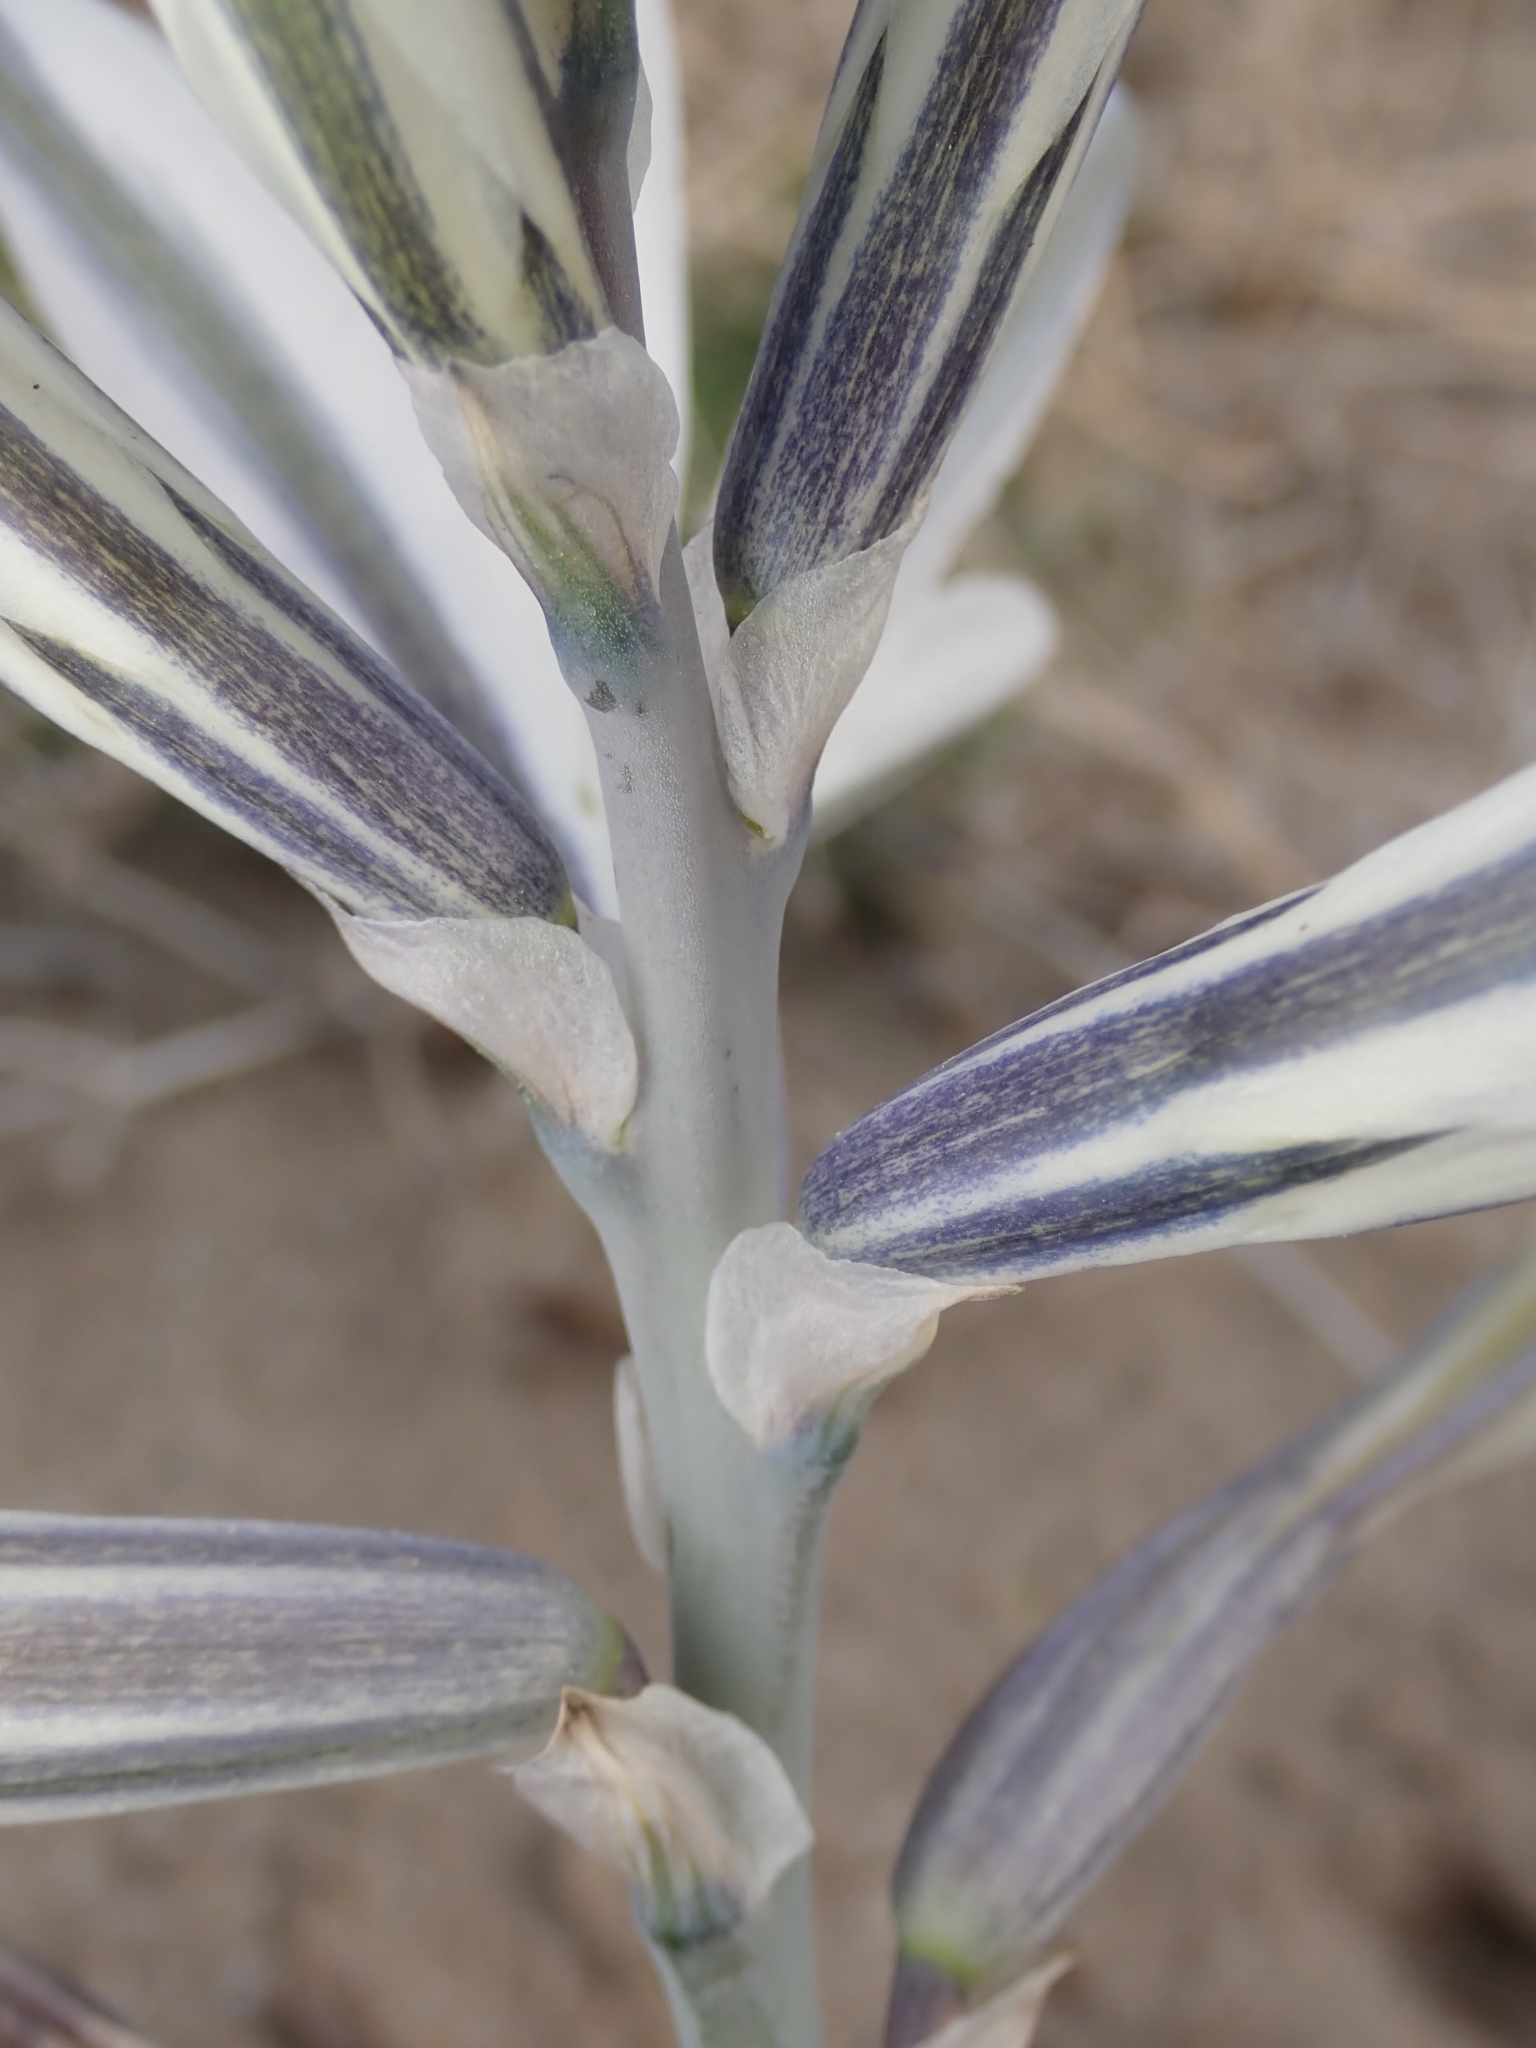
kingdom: Plantae
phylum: Tracheophyta
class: Liliopsida
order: Asparagales
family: Asparagaceae
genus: Hesperocallis
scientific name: Hesperocallis undulata
